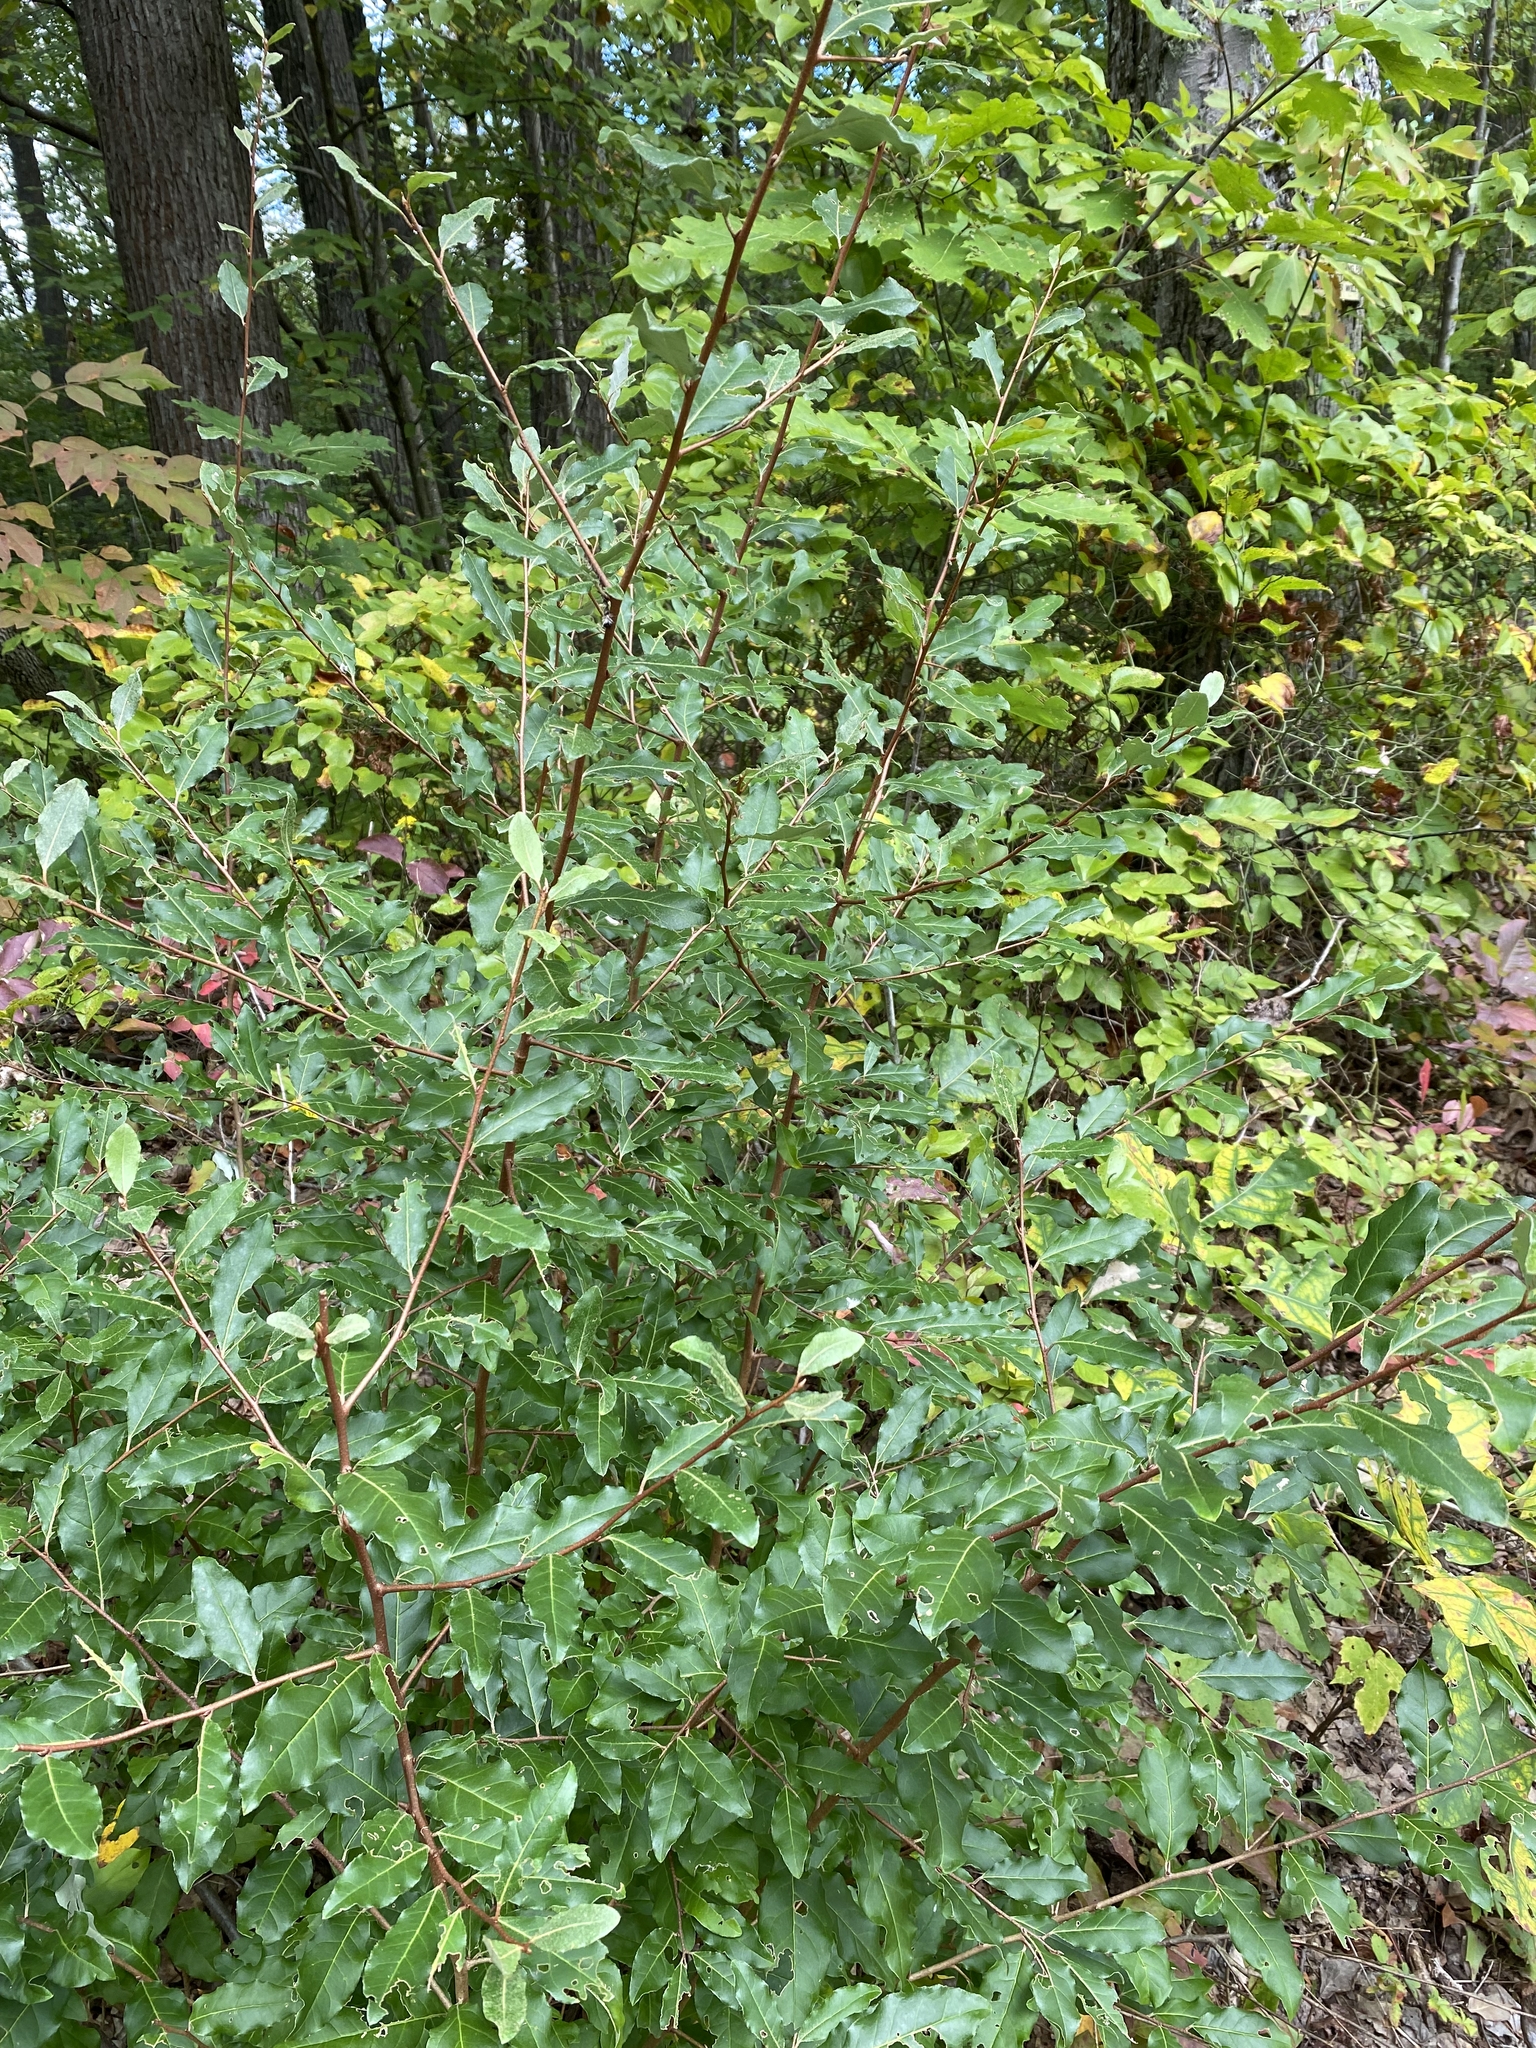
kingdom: Plantae
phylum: Tracheophyta
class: Magnoliopsida
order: Rosales
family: Elaeagnaceae
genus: Elaeagnus
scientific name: Elaeagnus umbellata
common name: Autumn olive
